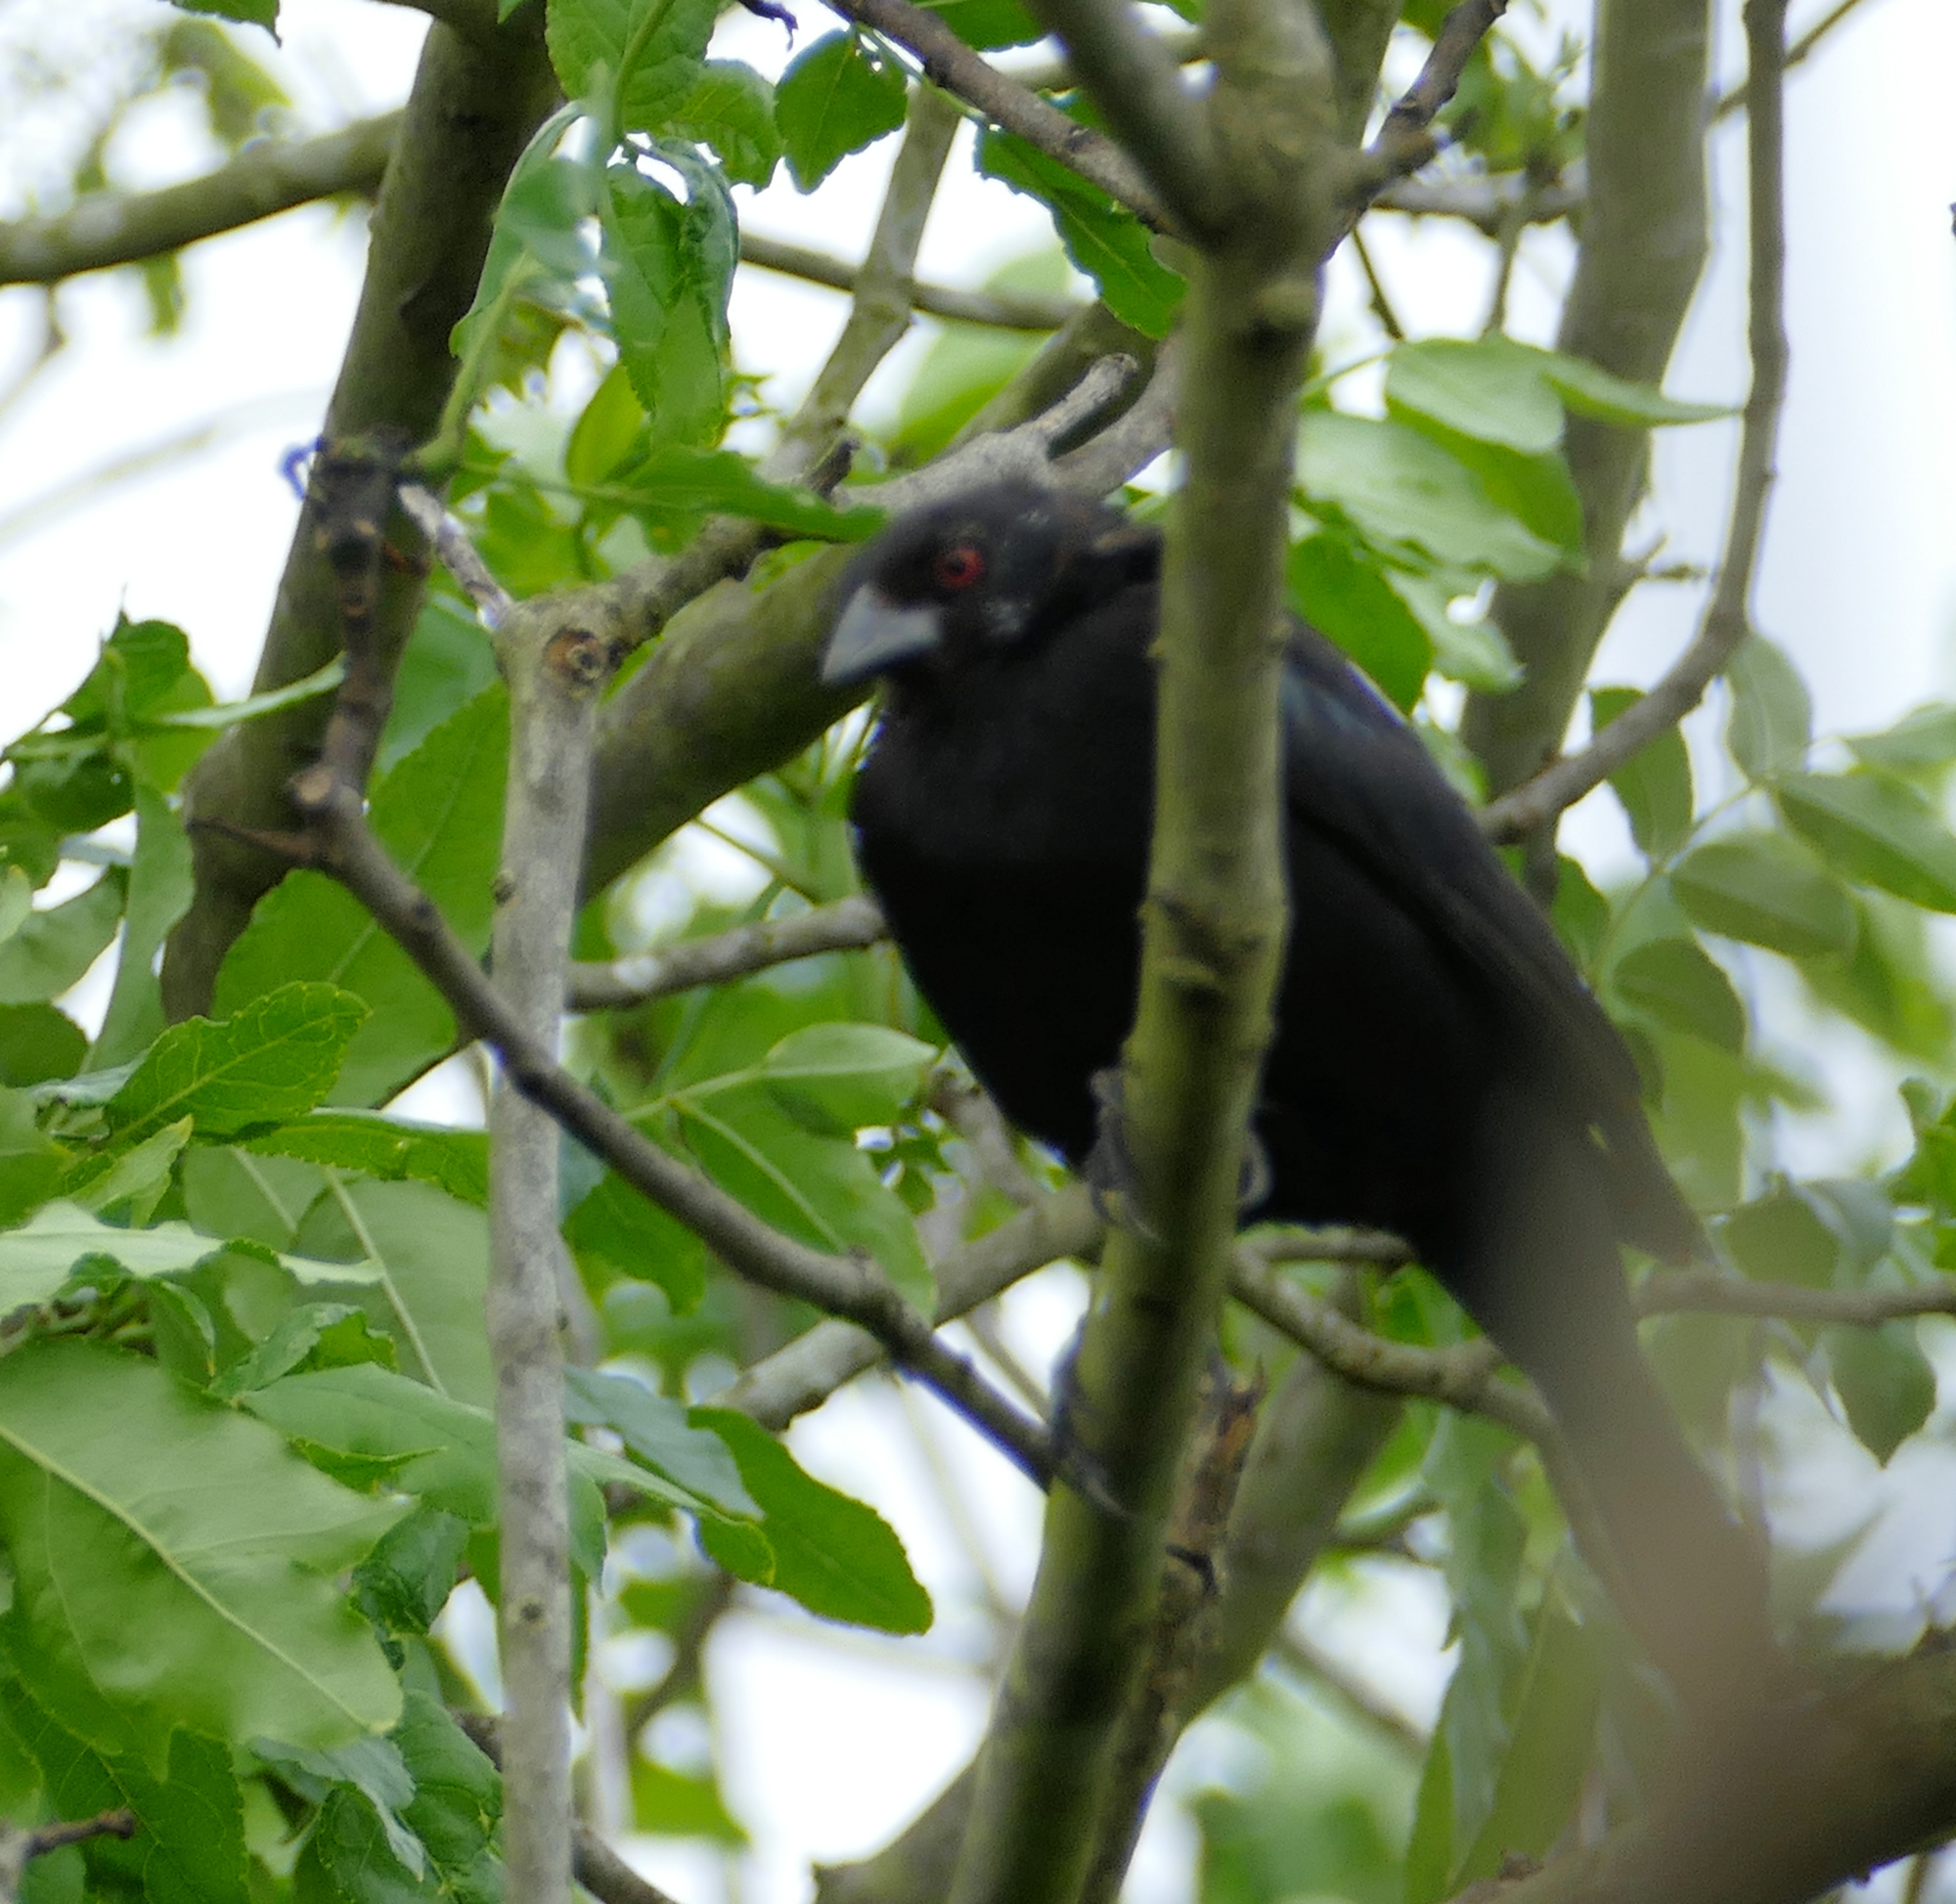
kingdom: Animalia
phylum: Chordata
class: Aves
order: Passeriformes
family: Icteridae
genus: Molothrus
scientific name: Molothrus aeneus
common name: Bronzed cowbird
